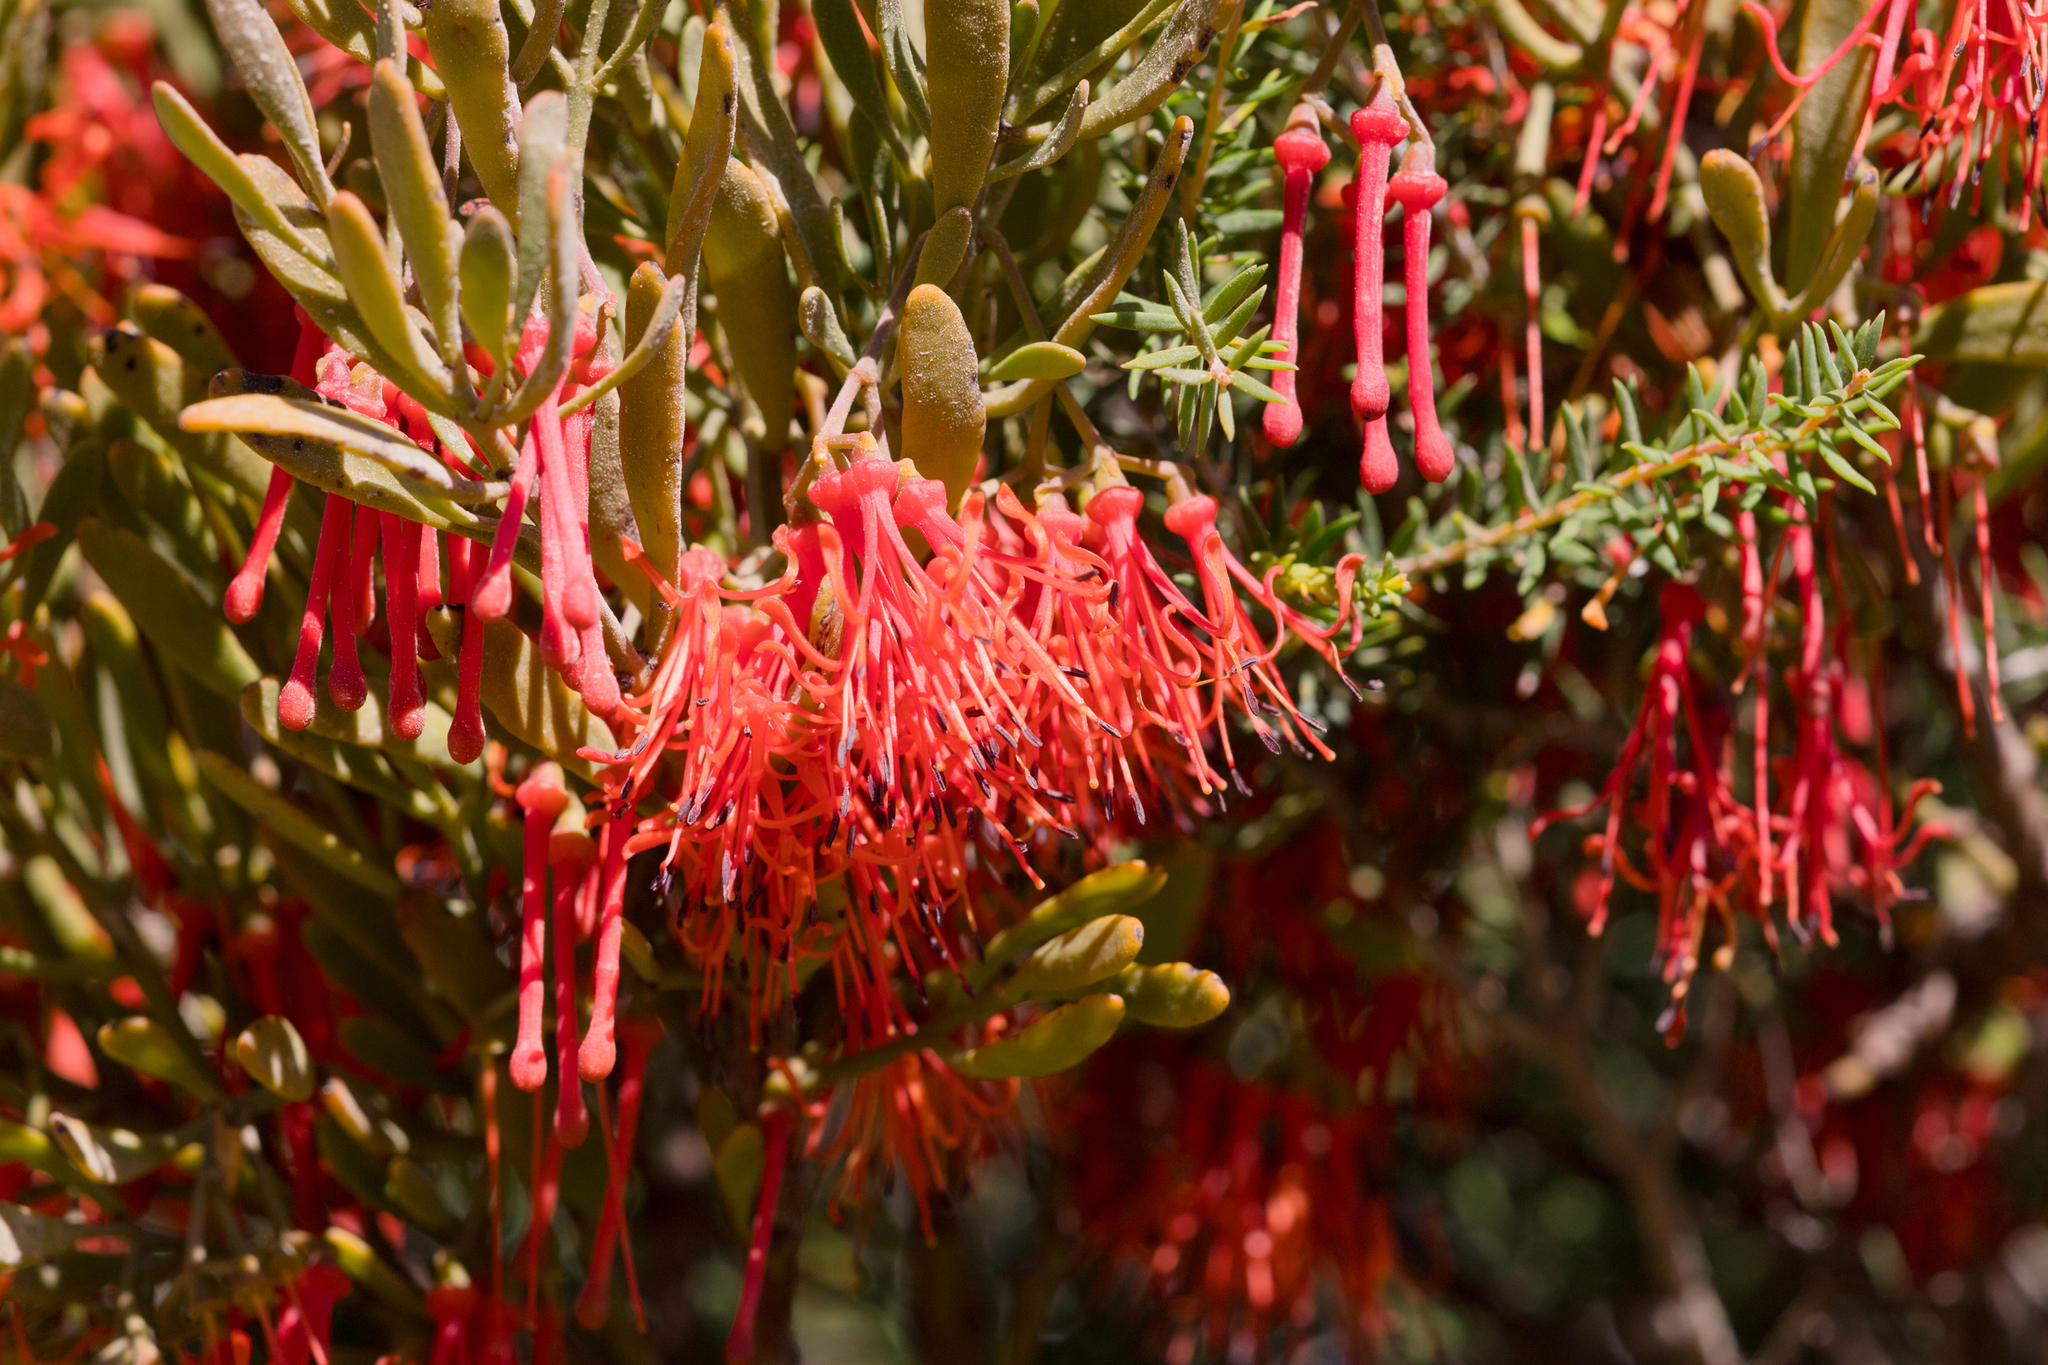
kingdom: Plantae
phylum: Tracheophyta
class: Magnoliopsida
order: Santalales
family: Loranthaceae
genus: Amyema
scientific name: Amyema melaleucae
